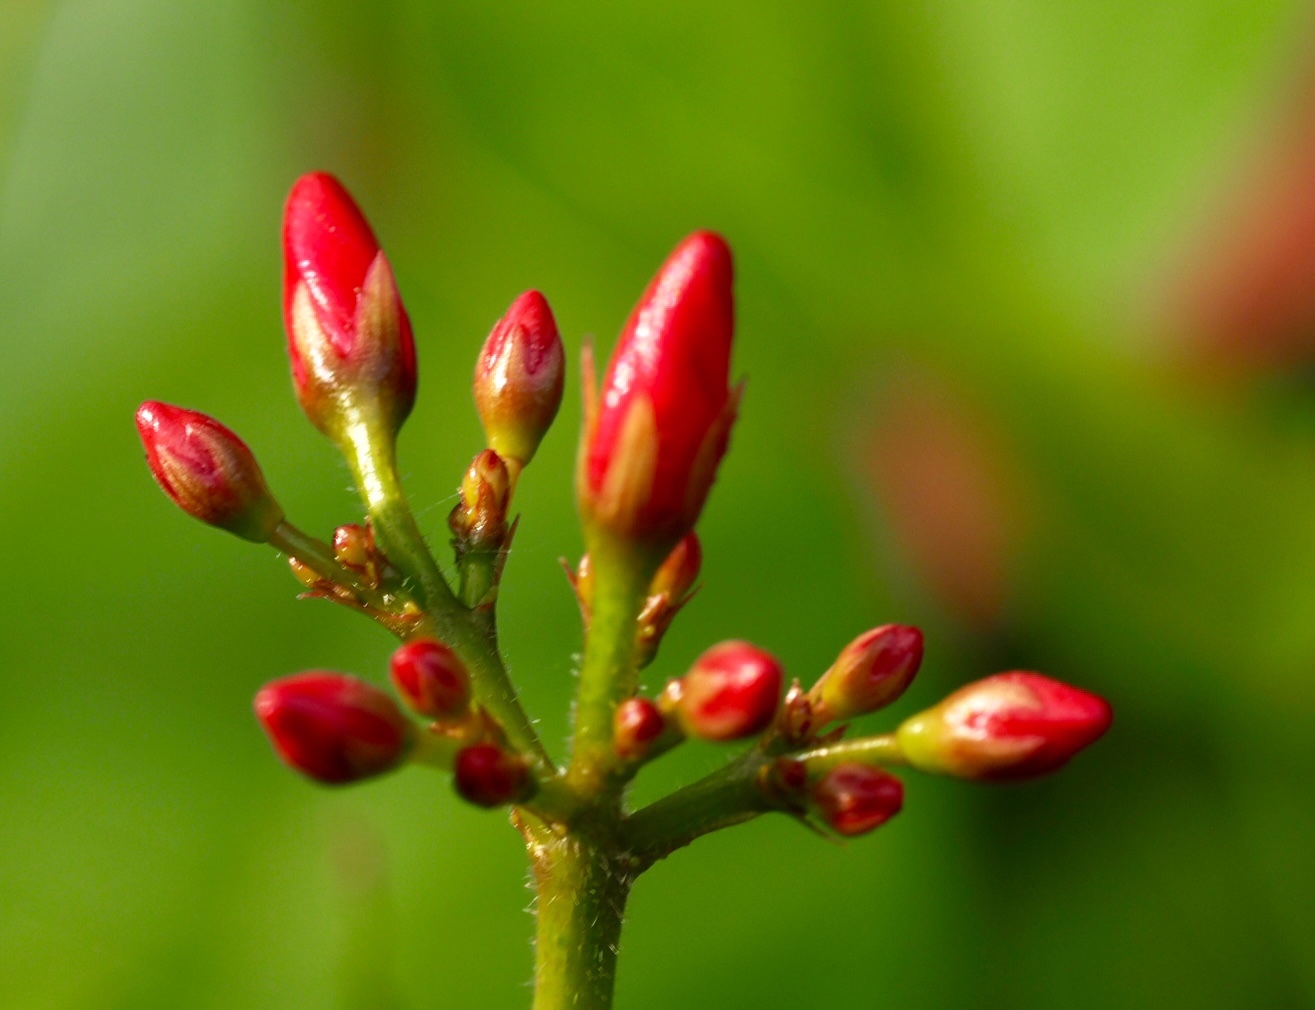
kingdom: Plantae
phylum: Tracheophyta
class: Magnoliopsida
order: Malpighiales
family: Euphorbiaceae
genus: Jatropha
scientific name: Jatropha integerrima
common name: Peregrina
